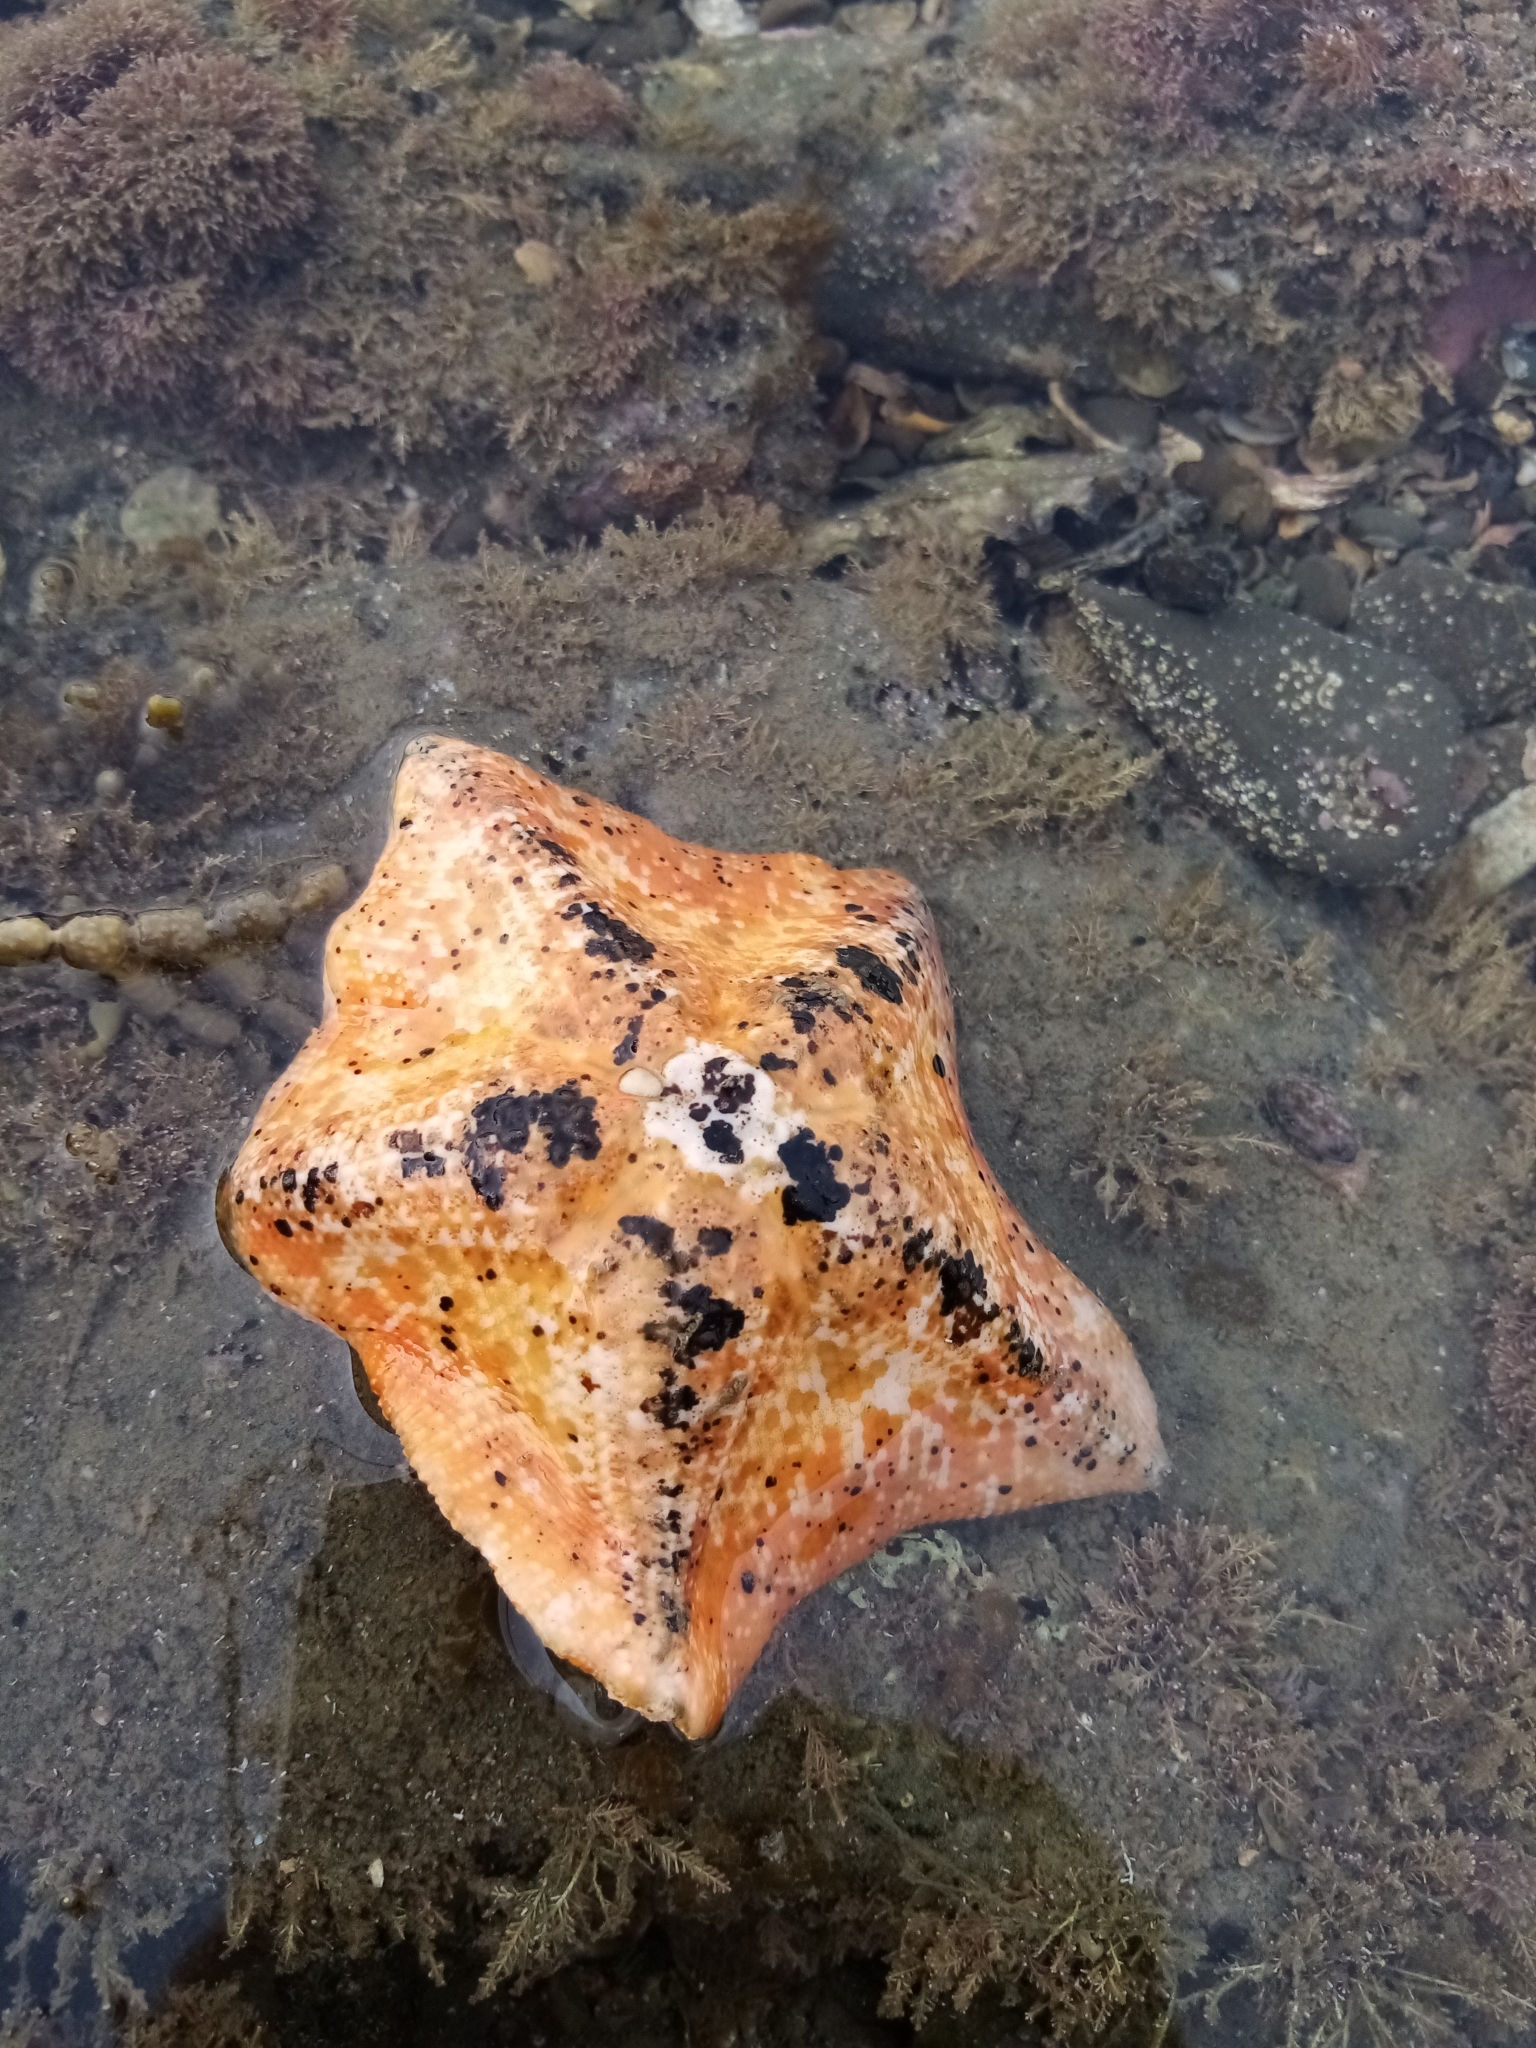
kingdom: Animalia
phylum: Echinodermata
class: Asteroidea
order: Valvatida
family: Asterinidae
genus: Stegnaster
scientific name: Stegnaster inflatus
